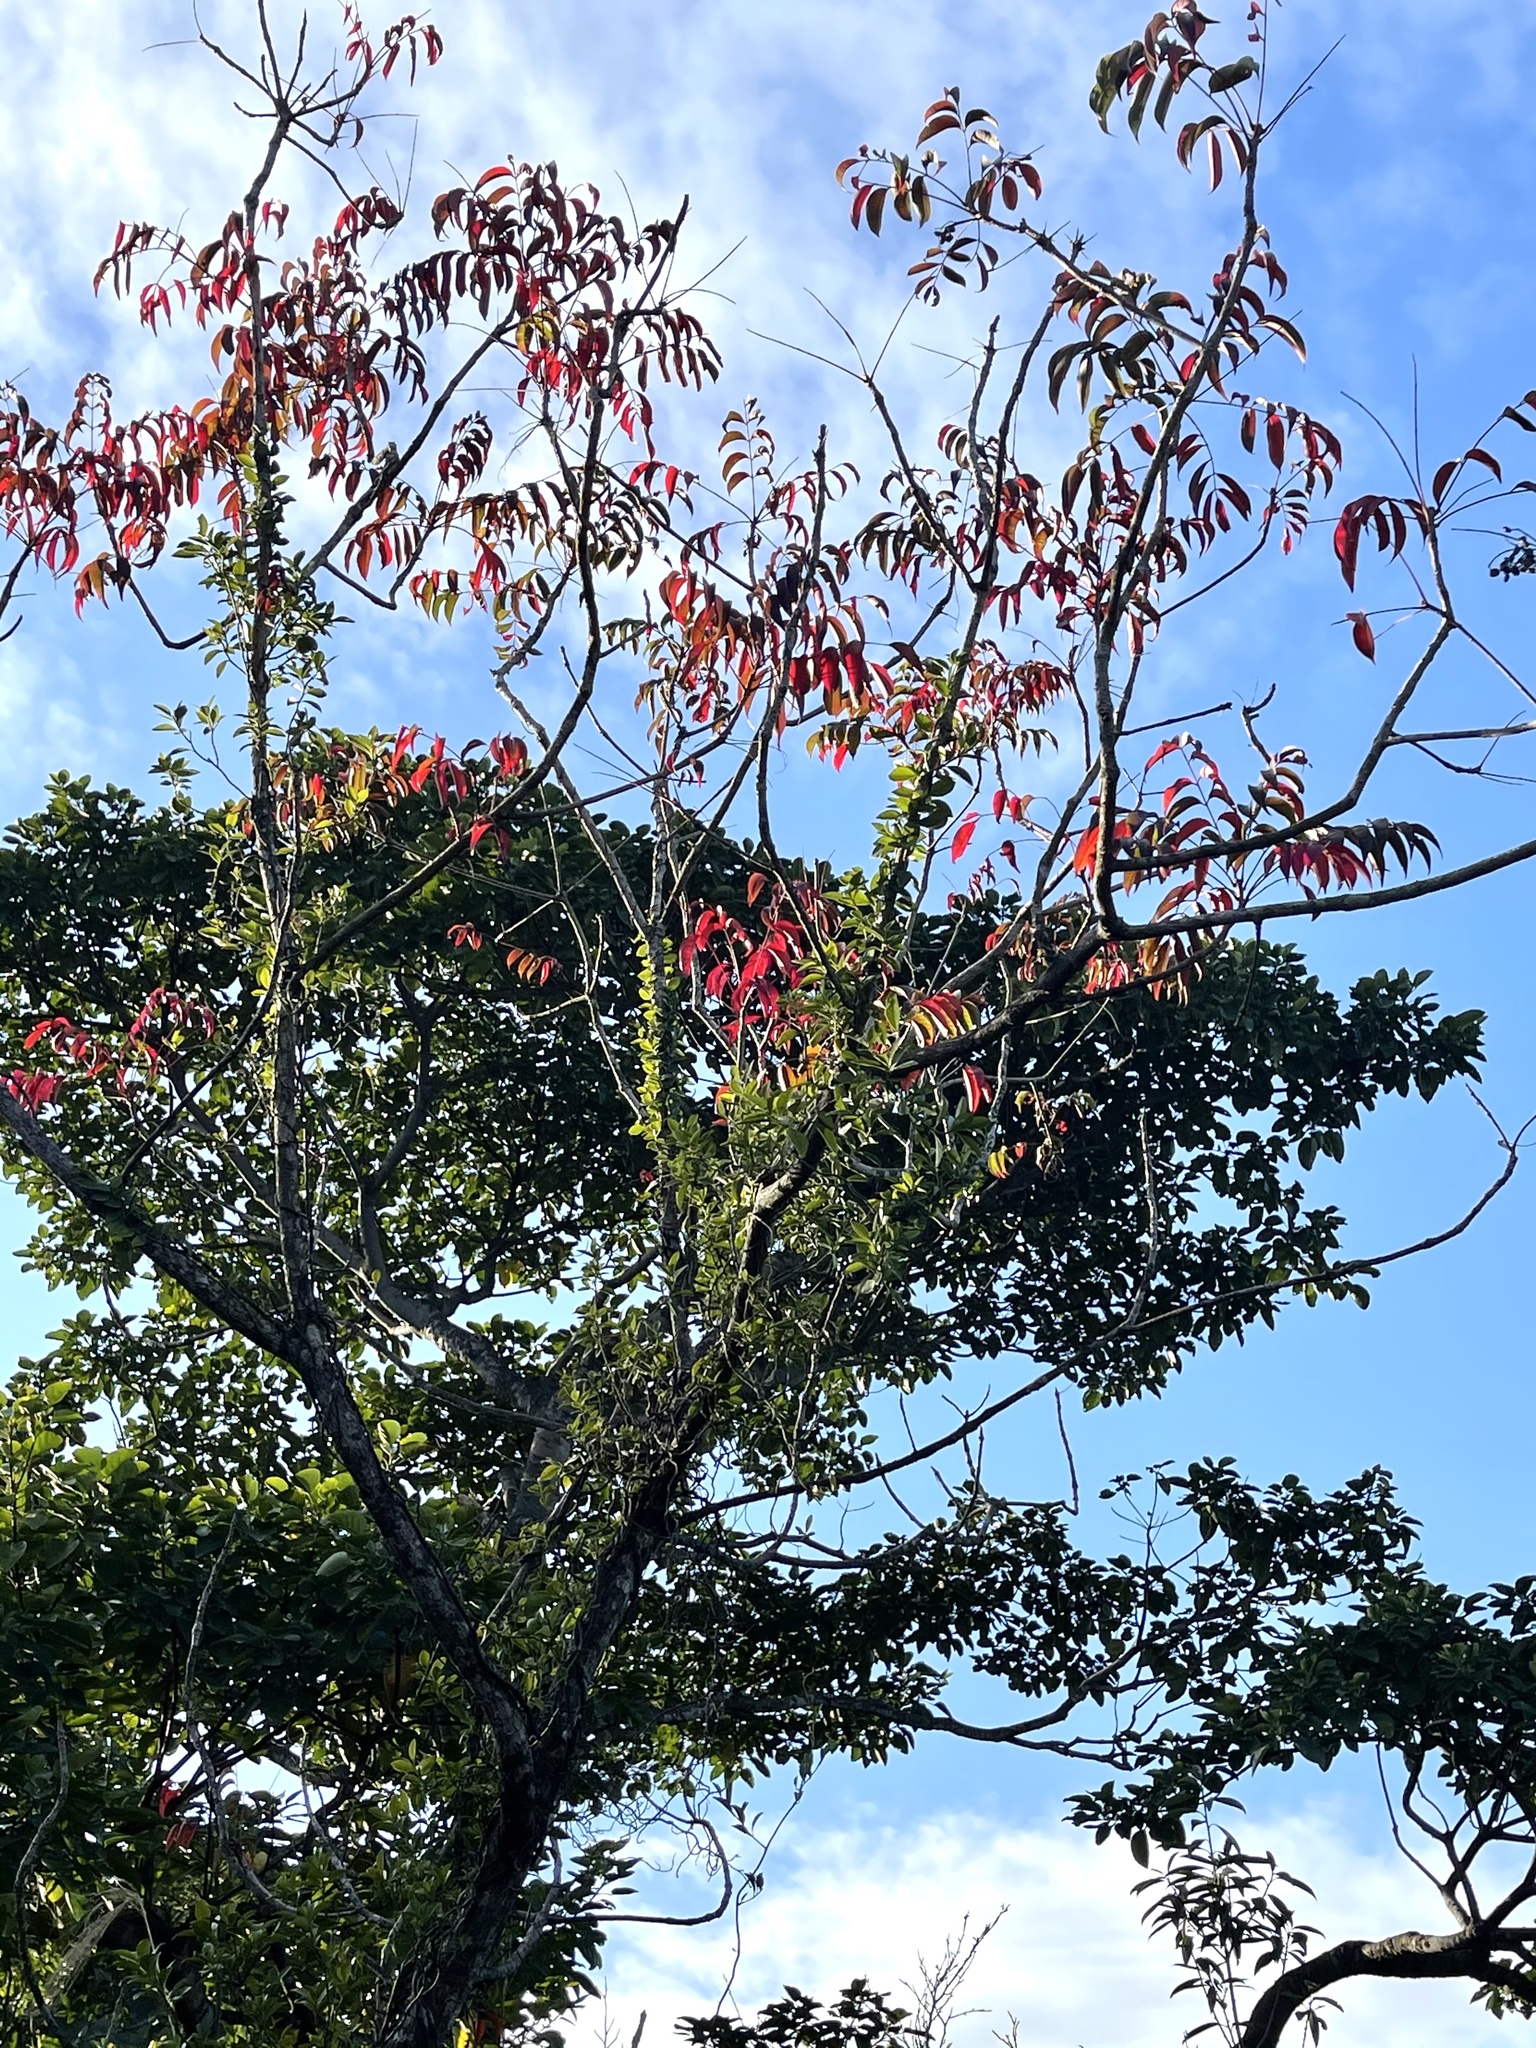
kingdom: Plantae
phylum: Tracheophyta
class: Magnoliopsida
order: Sapindales
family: Anacardiaceae
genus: Toxicodendron
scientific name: Toxicodendron succedaneum
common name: Wax tree
